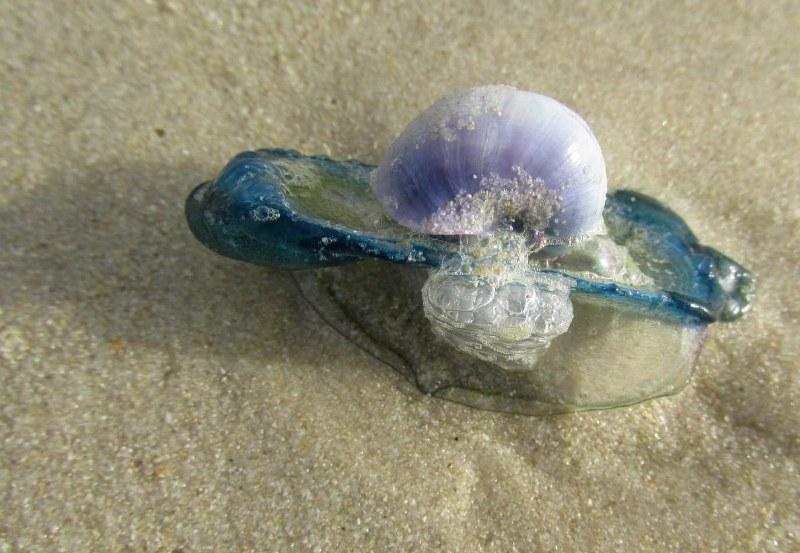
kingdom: Animalia
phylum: Mollusca
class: Gastropoda
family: Epitoniidae
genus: Janthina
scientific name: Janthina
